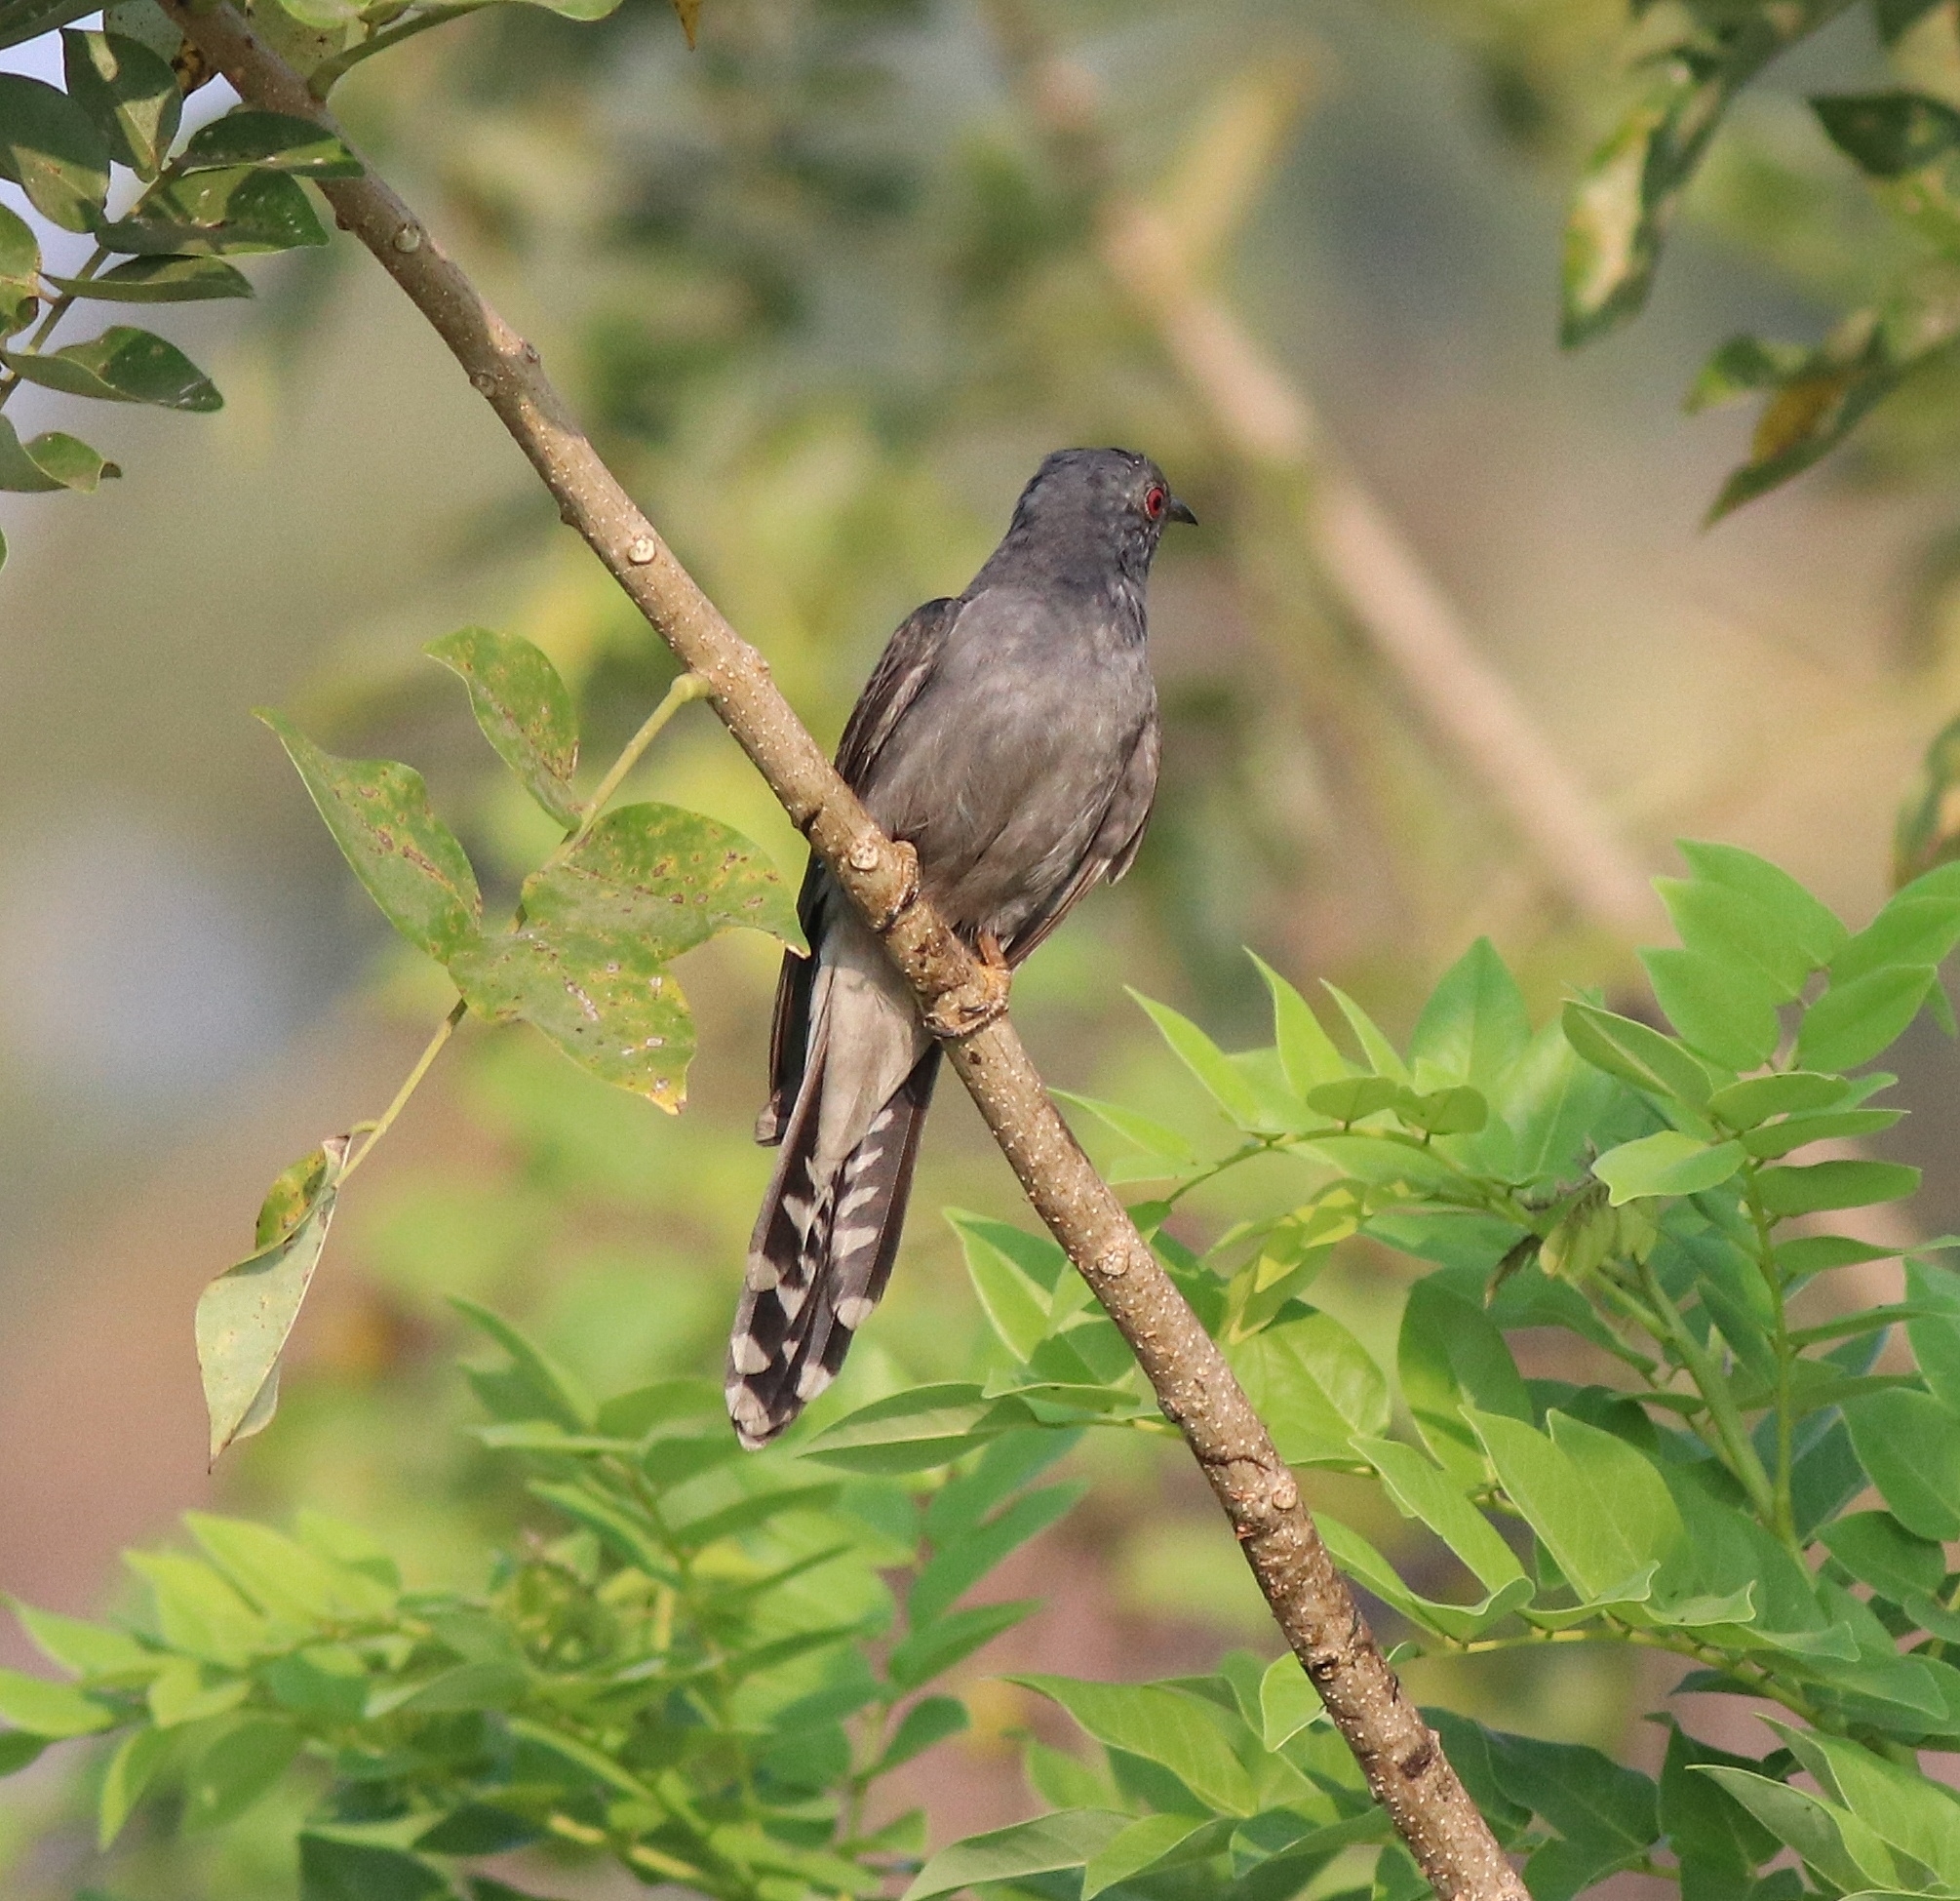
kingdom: Animalia
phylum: Chordata
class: Aves
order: Cuculiformes
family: Cuculidae
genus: Cacomantis
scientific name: Cacomantis passerinus
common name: Grey-bellied cuckoo
